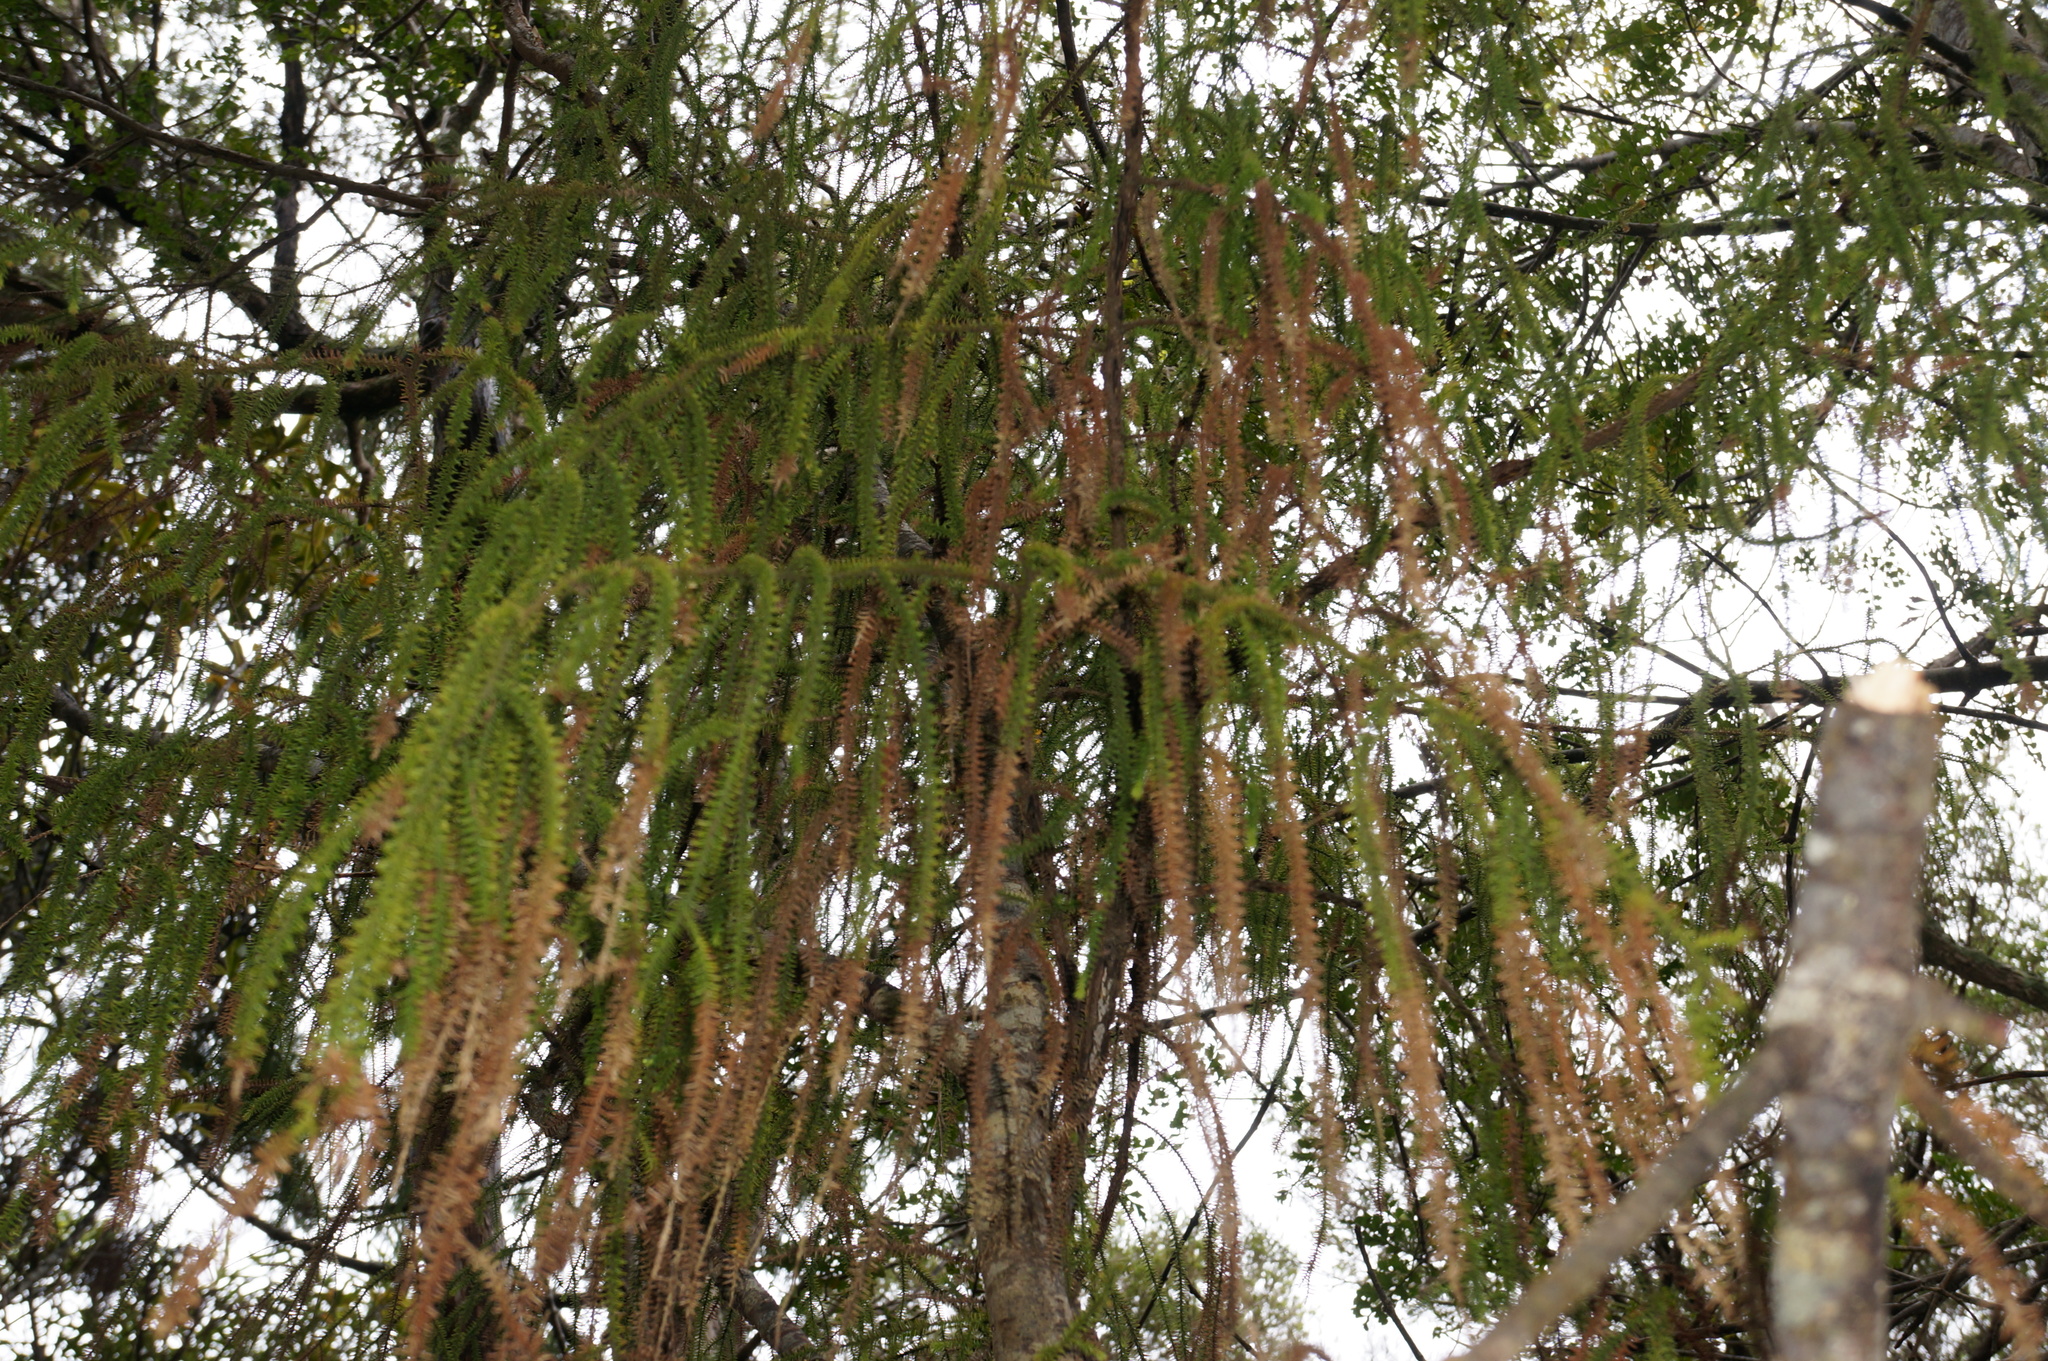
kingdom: Plantae
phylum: Tracheophyta
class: Pinopsida
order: Pinales
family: Podocarpaceae
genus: Dacrydium
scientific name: Dacrydium cupressinum
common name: Red pine
